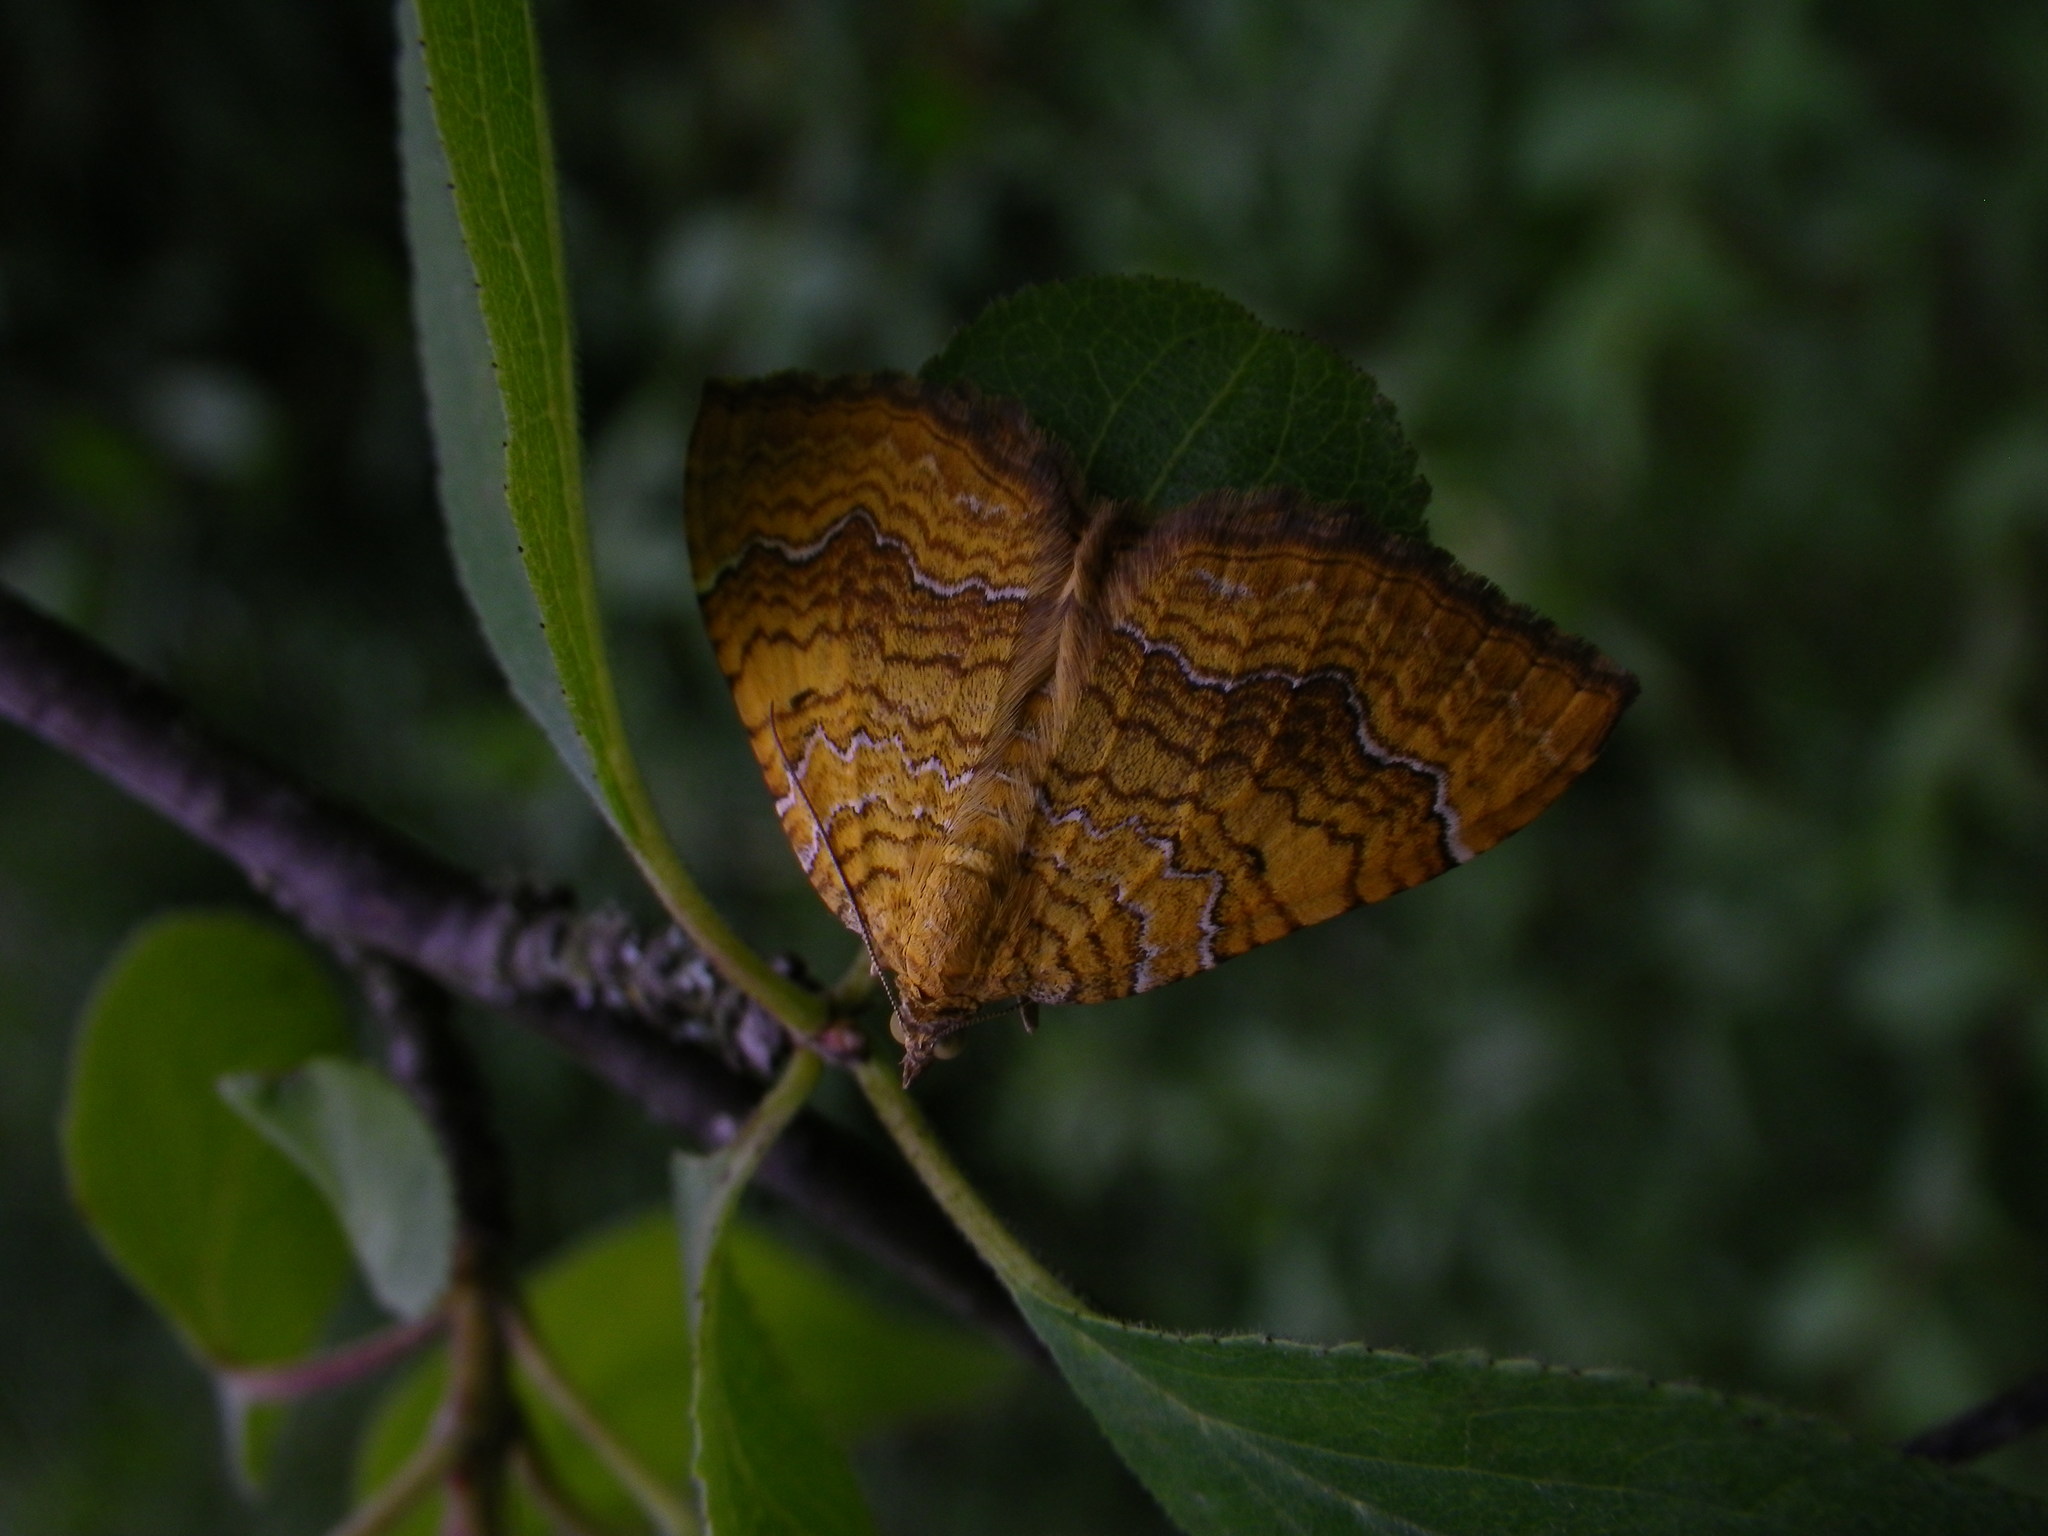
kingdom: Animalia
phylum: Arthropoda
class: Insecta
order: Lepidoptera
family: Geometridae
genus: Camptogramma
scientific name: Camptogramma bilineata
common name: Yellow shell
